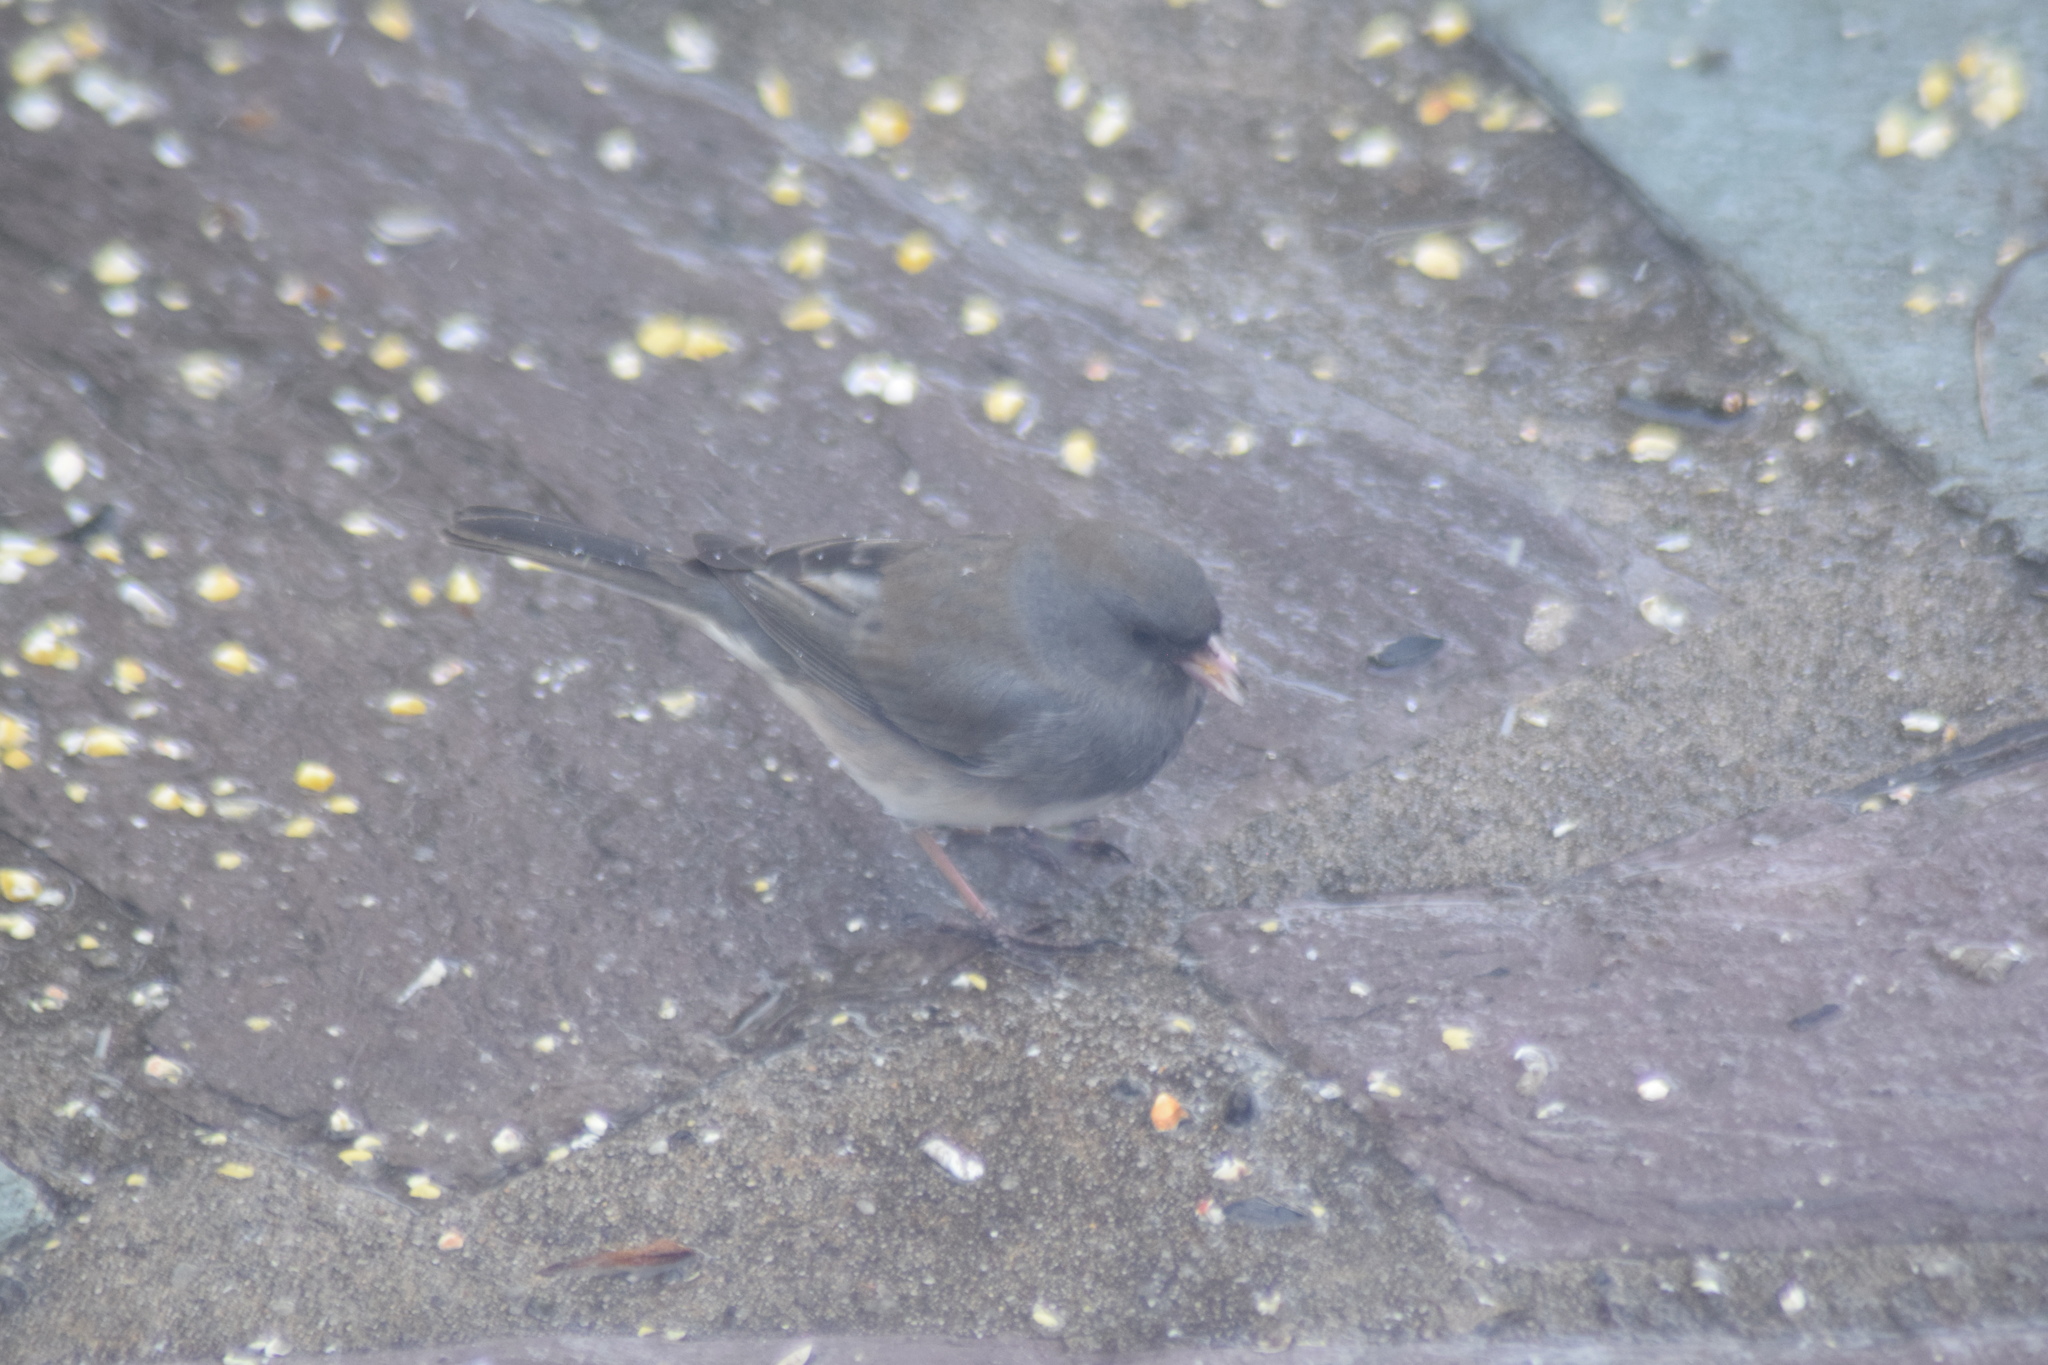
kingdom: Animalia
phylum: Chordata
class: Aves
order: Passeriformes
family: Passerellidae
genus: Junco
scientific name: Junco hyemalis
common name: Dark-eyed junco
